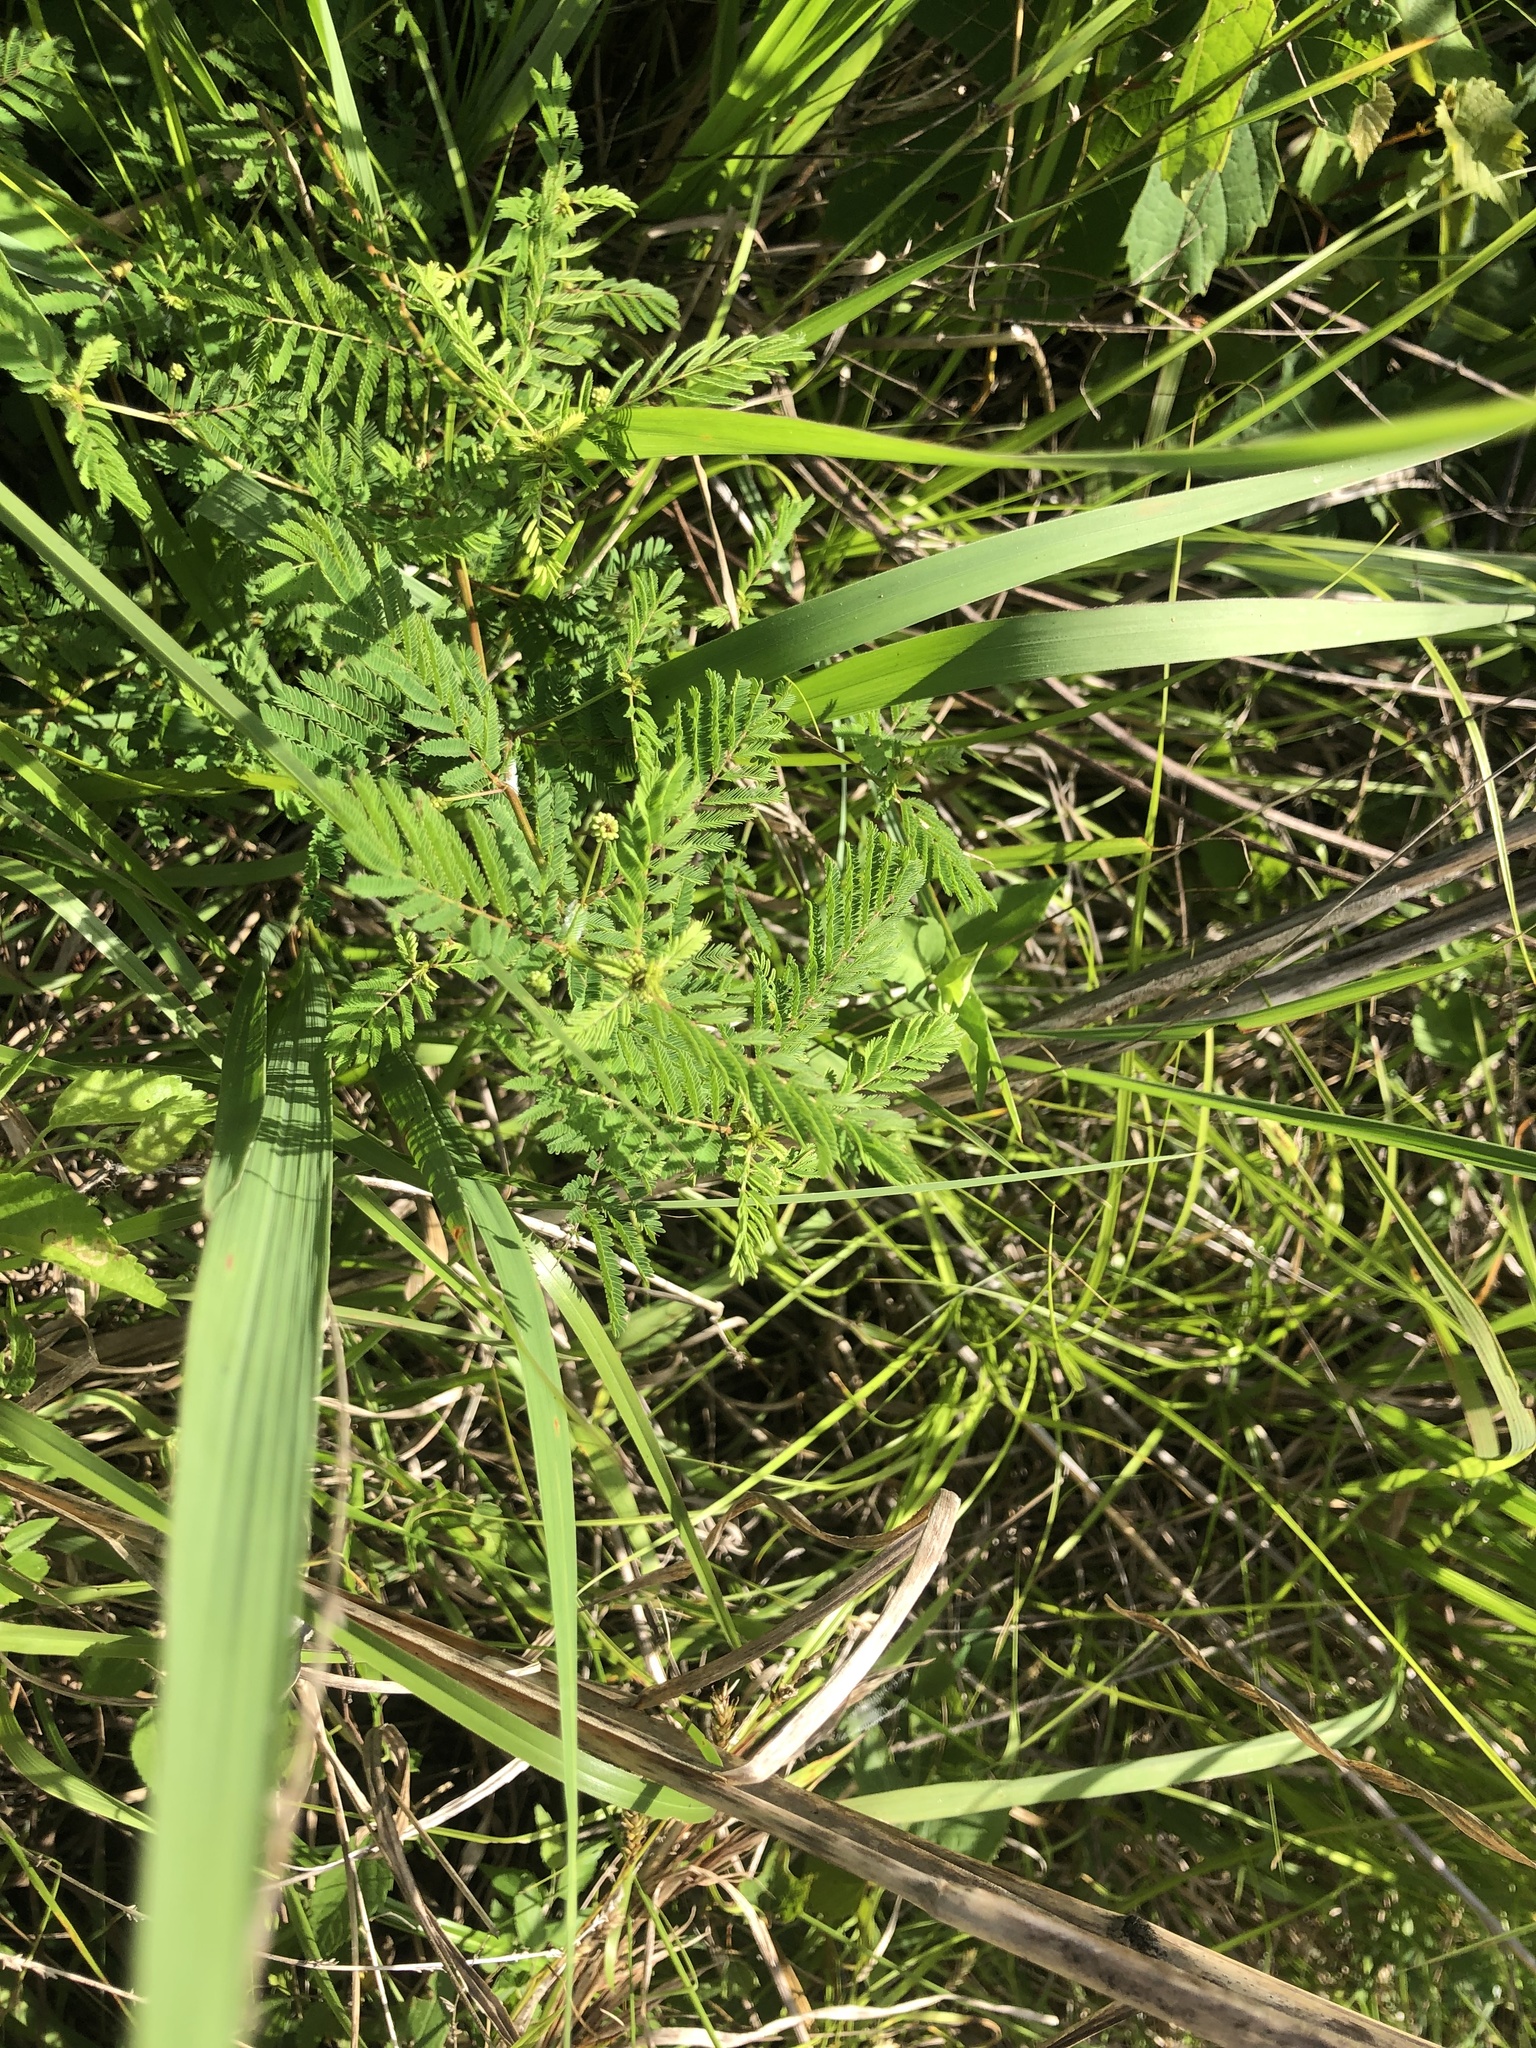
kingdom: Plantae
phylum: Tracheophyta
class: Magnoliopsida
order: Fabales
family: Fabaceae
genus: Desmanthus
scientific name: Desmanthus illinoensis
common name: Illinois bundle-flower
